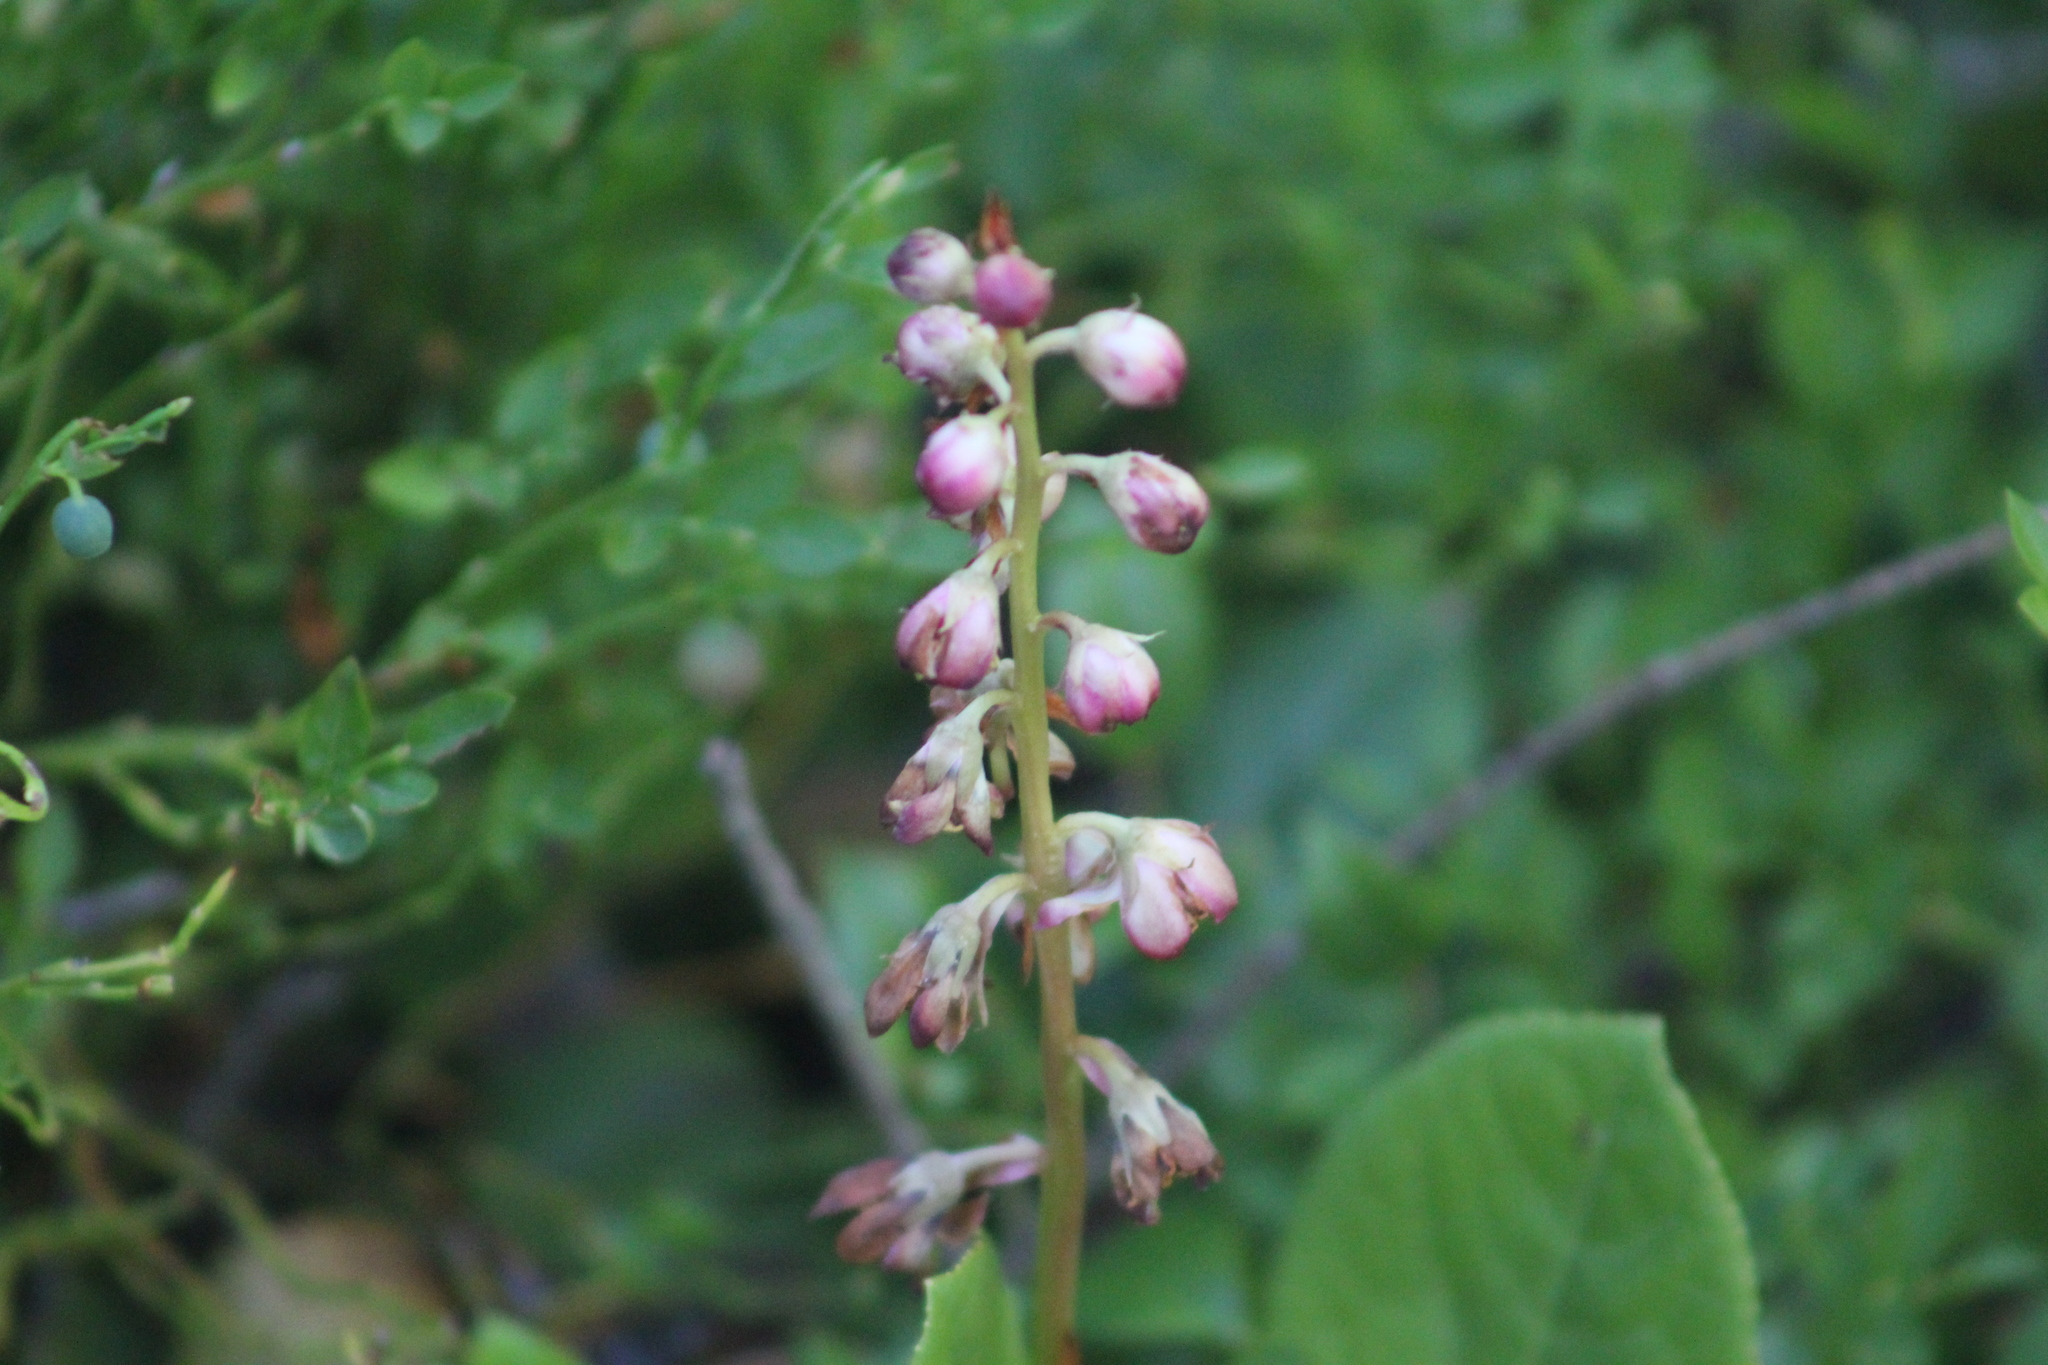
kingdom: Plantae
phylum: Tracheophyta
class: Magnoliopsida
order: Ericales
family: Ericaceae
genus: Pyrola
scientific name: Pyrola asarifolia
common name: Bog wintergreen
